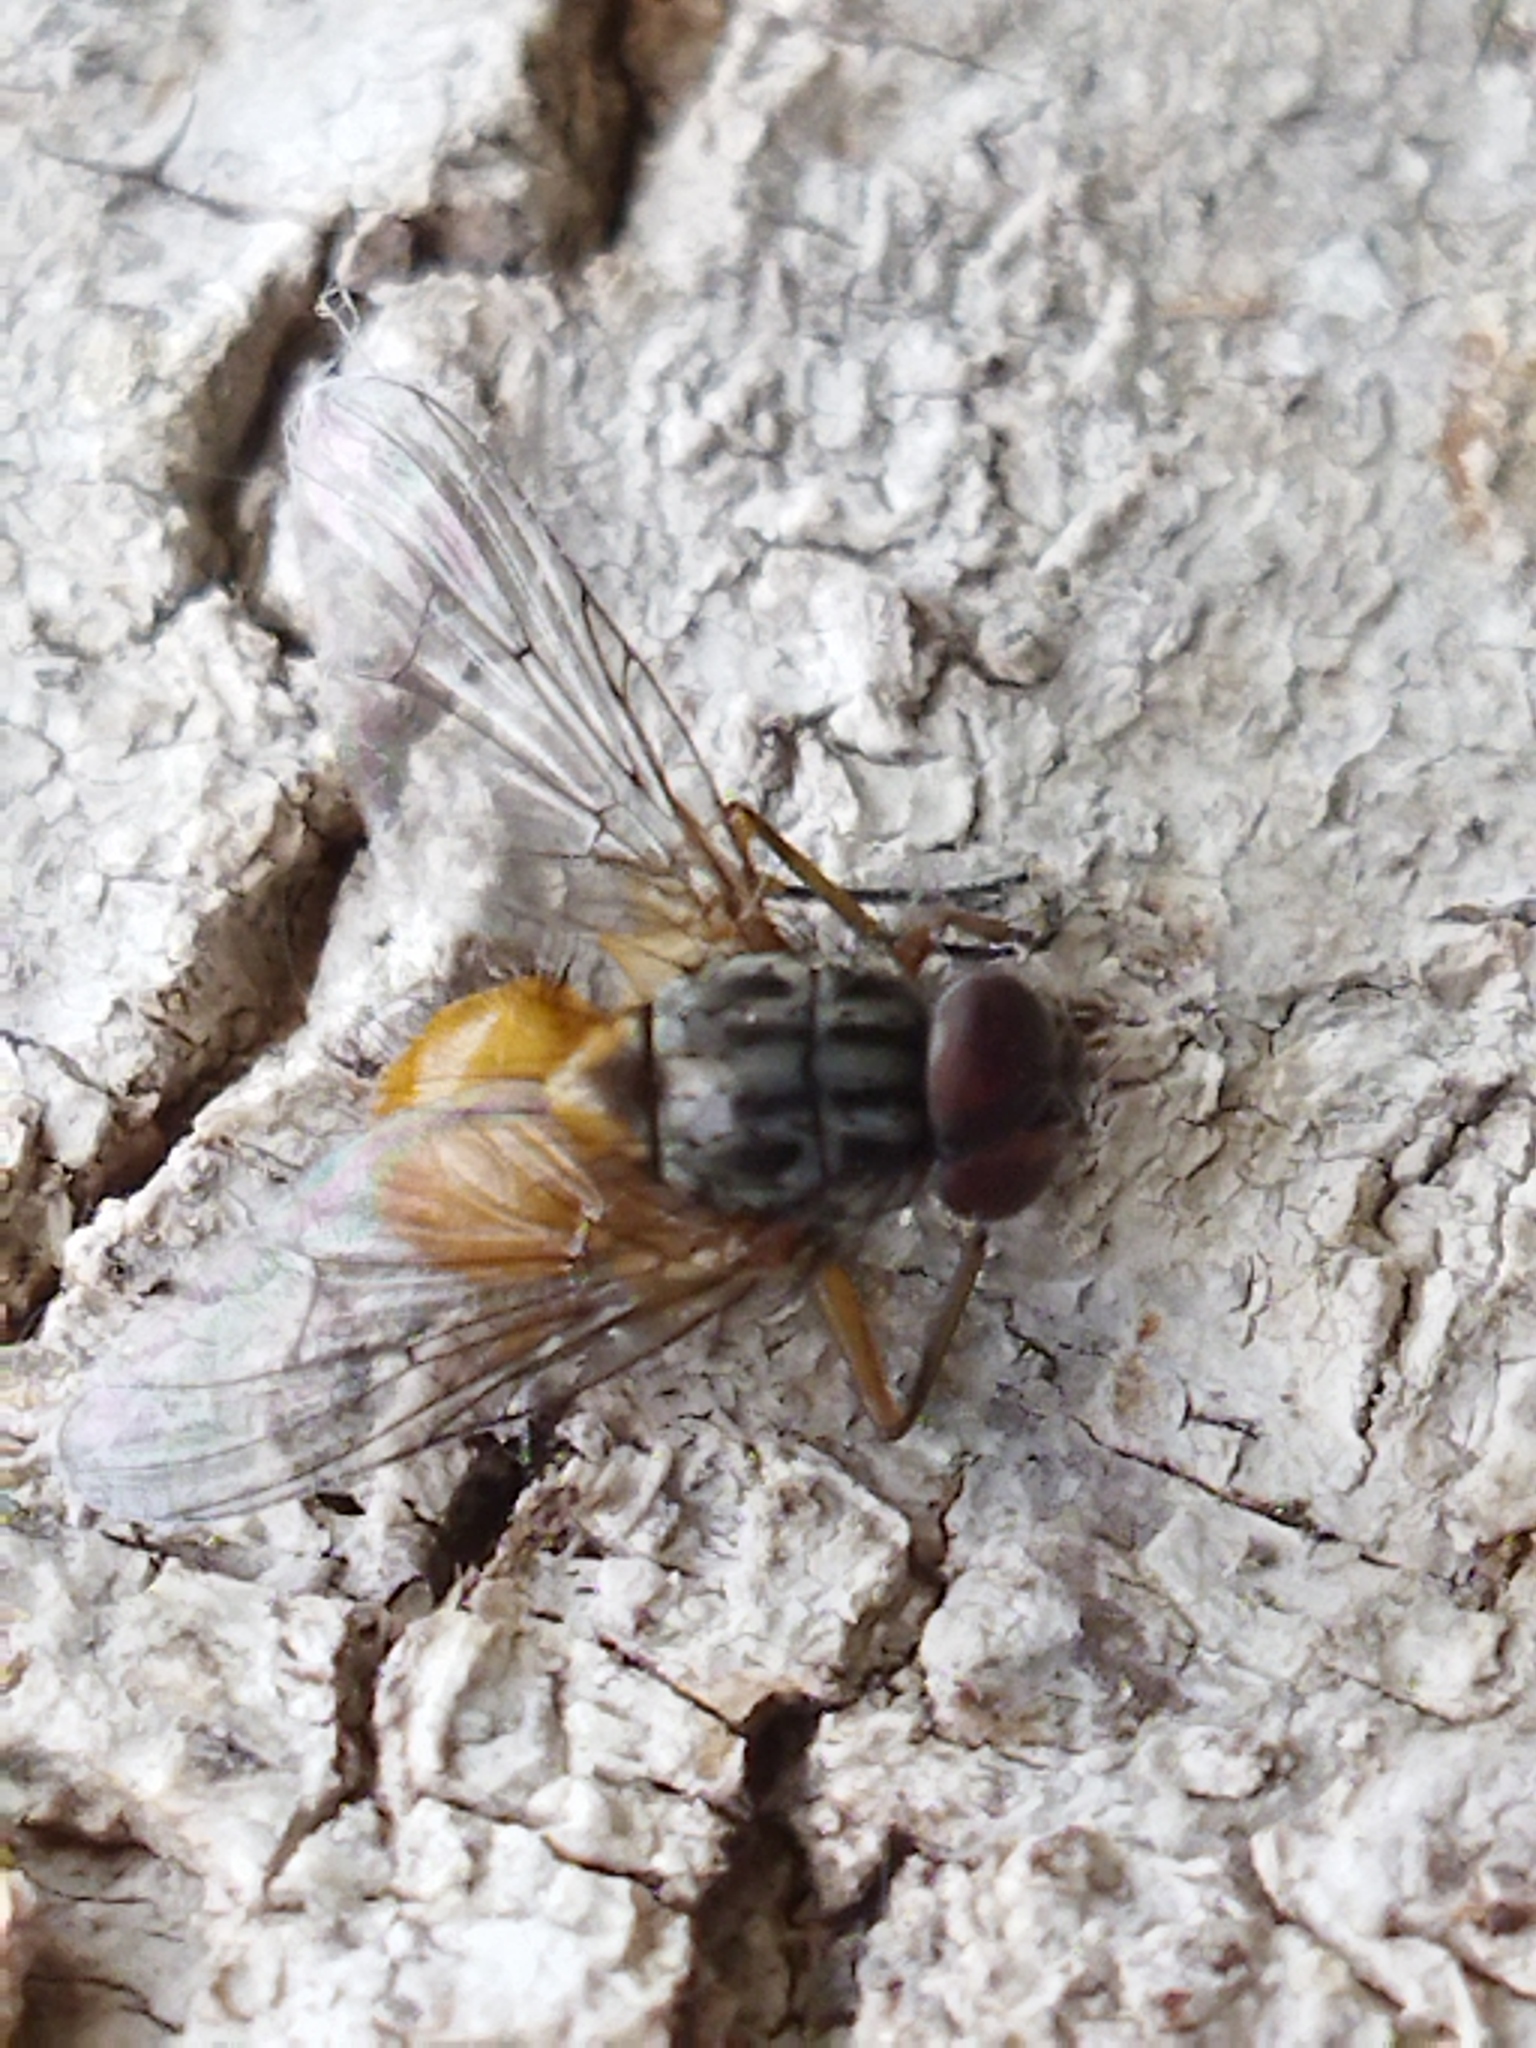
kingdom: Animalia
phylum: Arthropoda
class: Insecta
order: Diptera
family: Muscidae
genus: Phaonia
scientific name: Phaonia subventa
